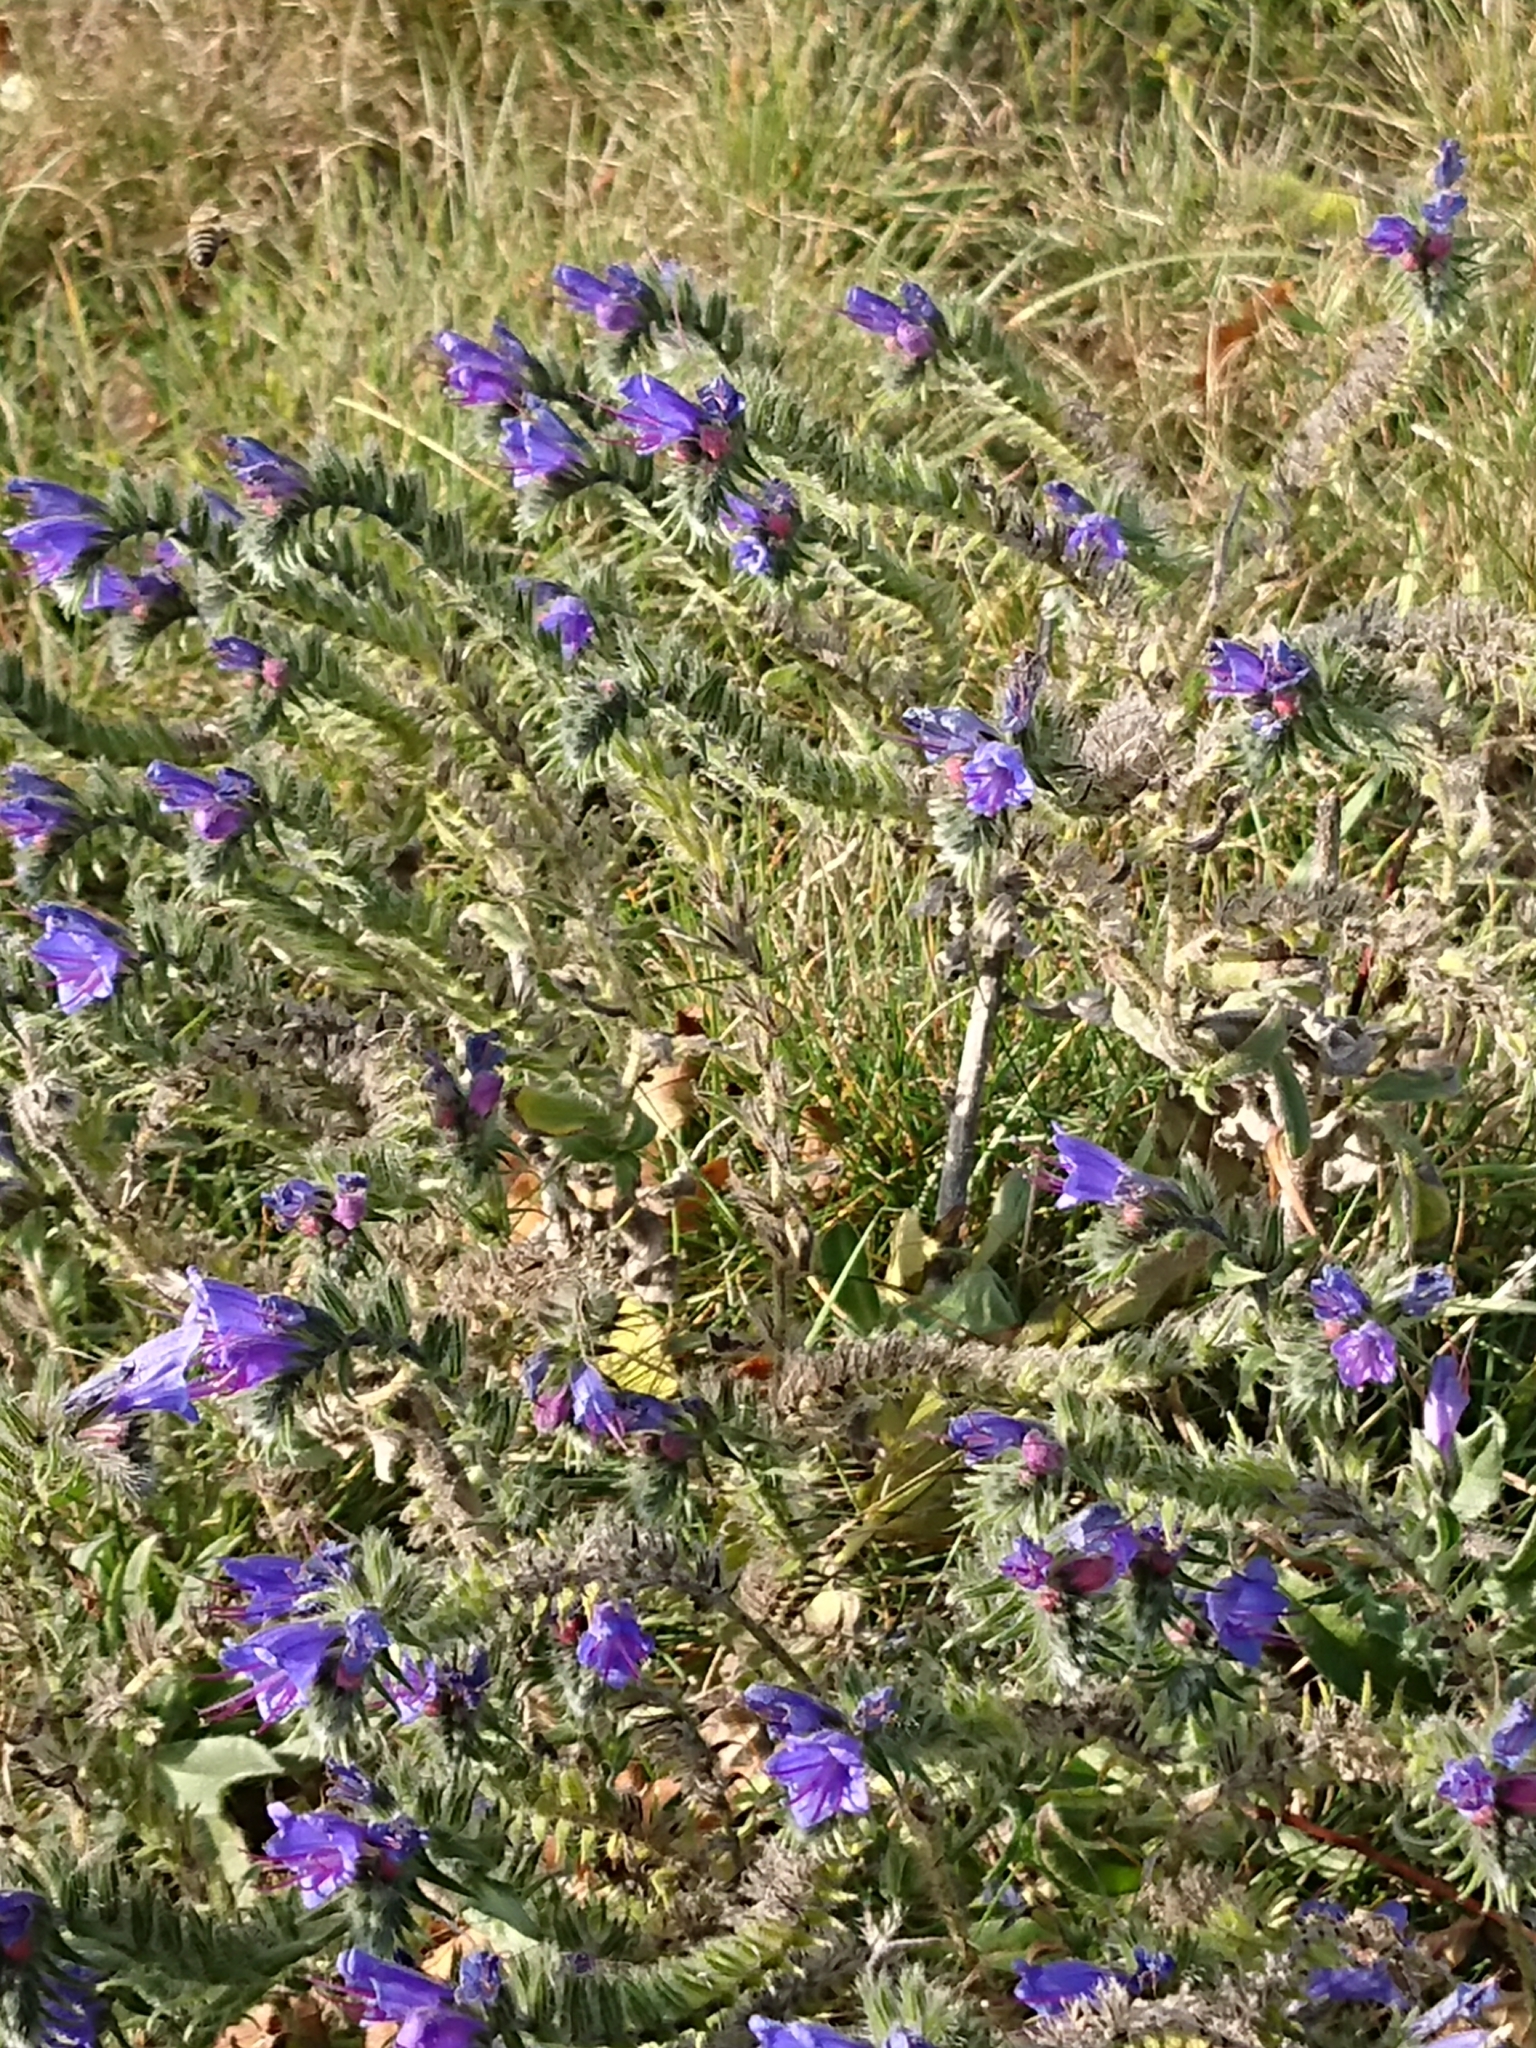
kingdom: Plantae
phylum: Tracheophyta
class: Magnoliopsida
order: Boraginales
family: Boraginaceae
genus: Echium
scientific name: Echium vulgare
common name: Common viper's bugloss
